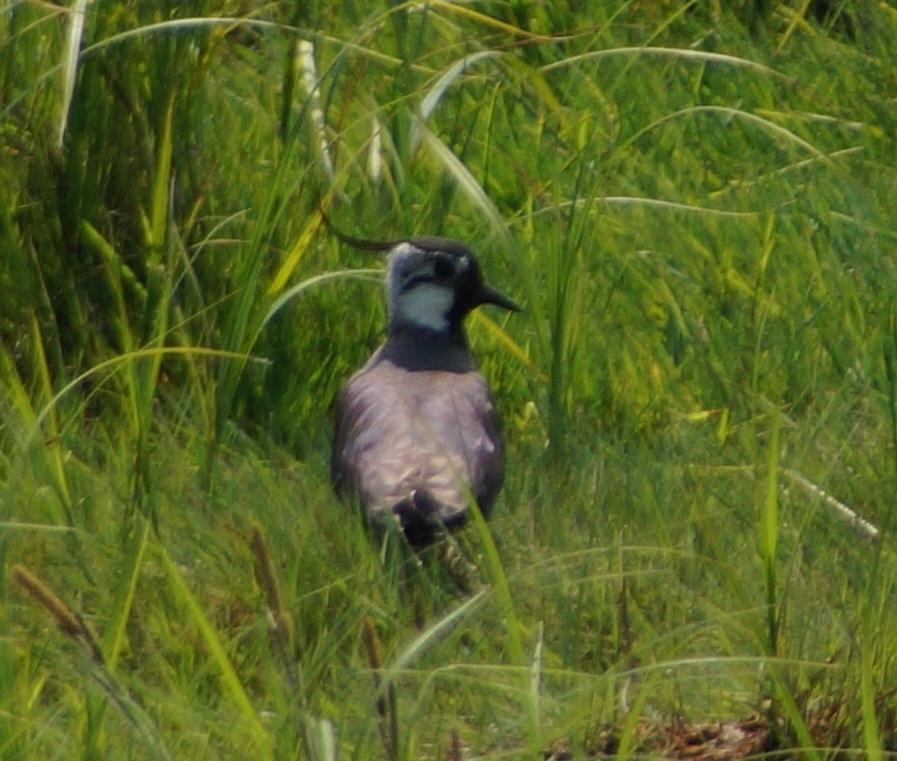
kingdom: Animalia
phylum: Chordata
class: Aves
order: Charadriiformes
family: Charadriidae
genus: Vanellus
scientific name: Vanellus vanellus
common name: Northern lapwing
